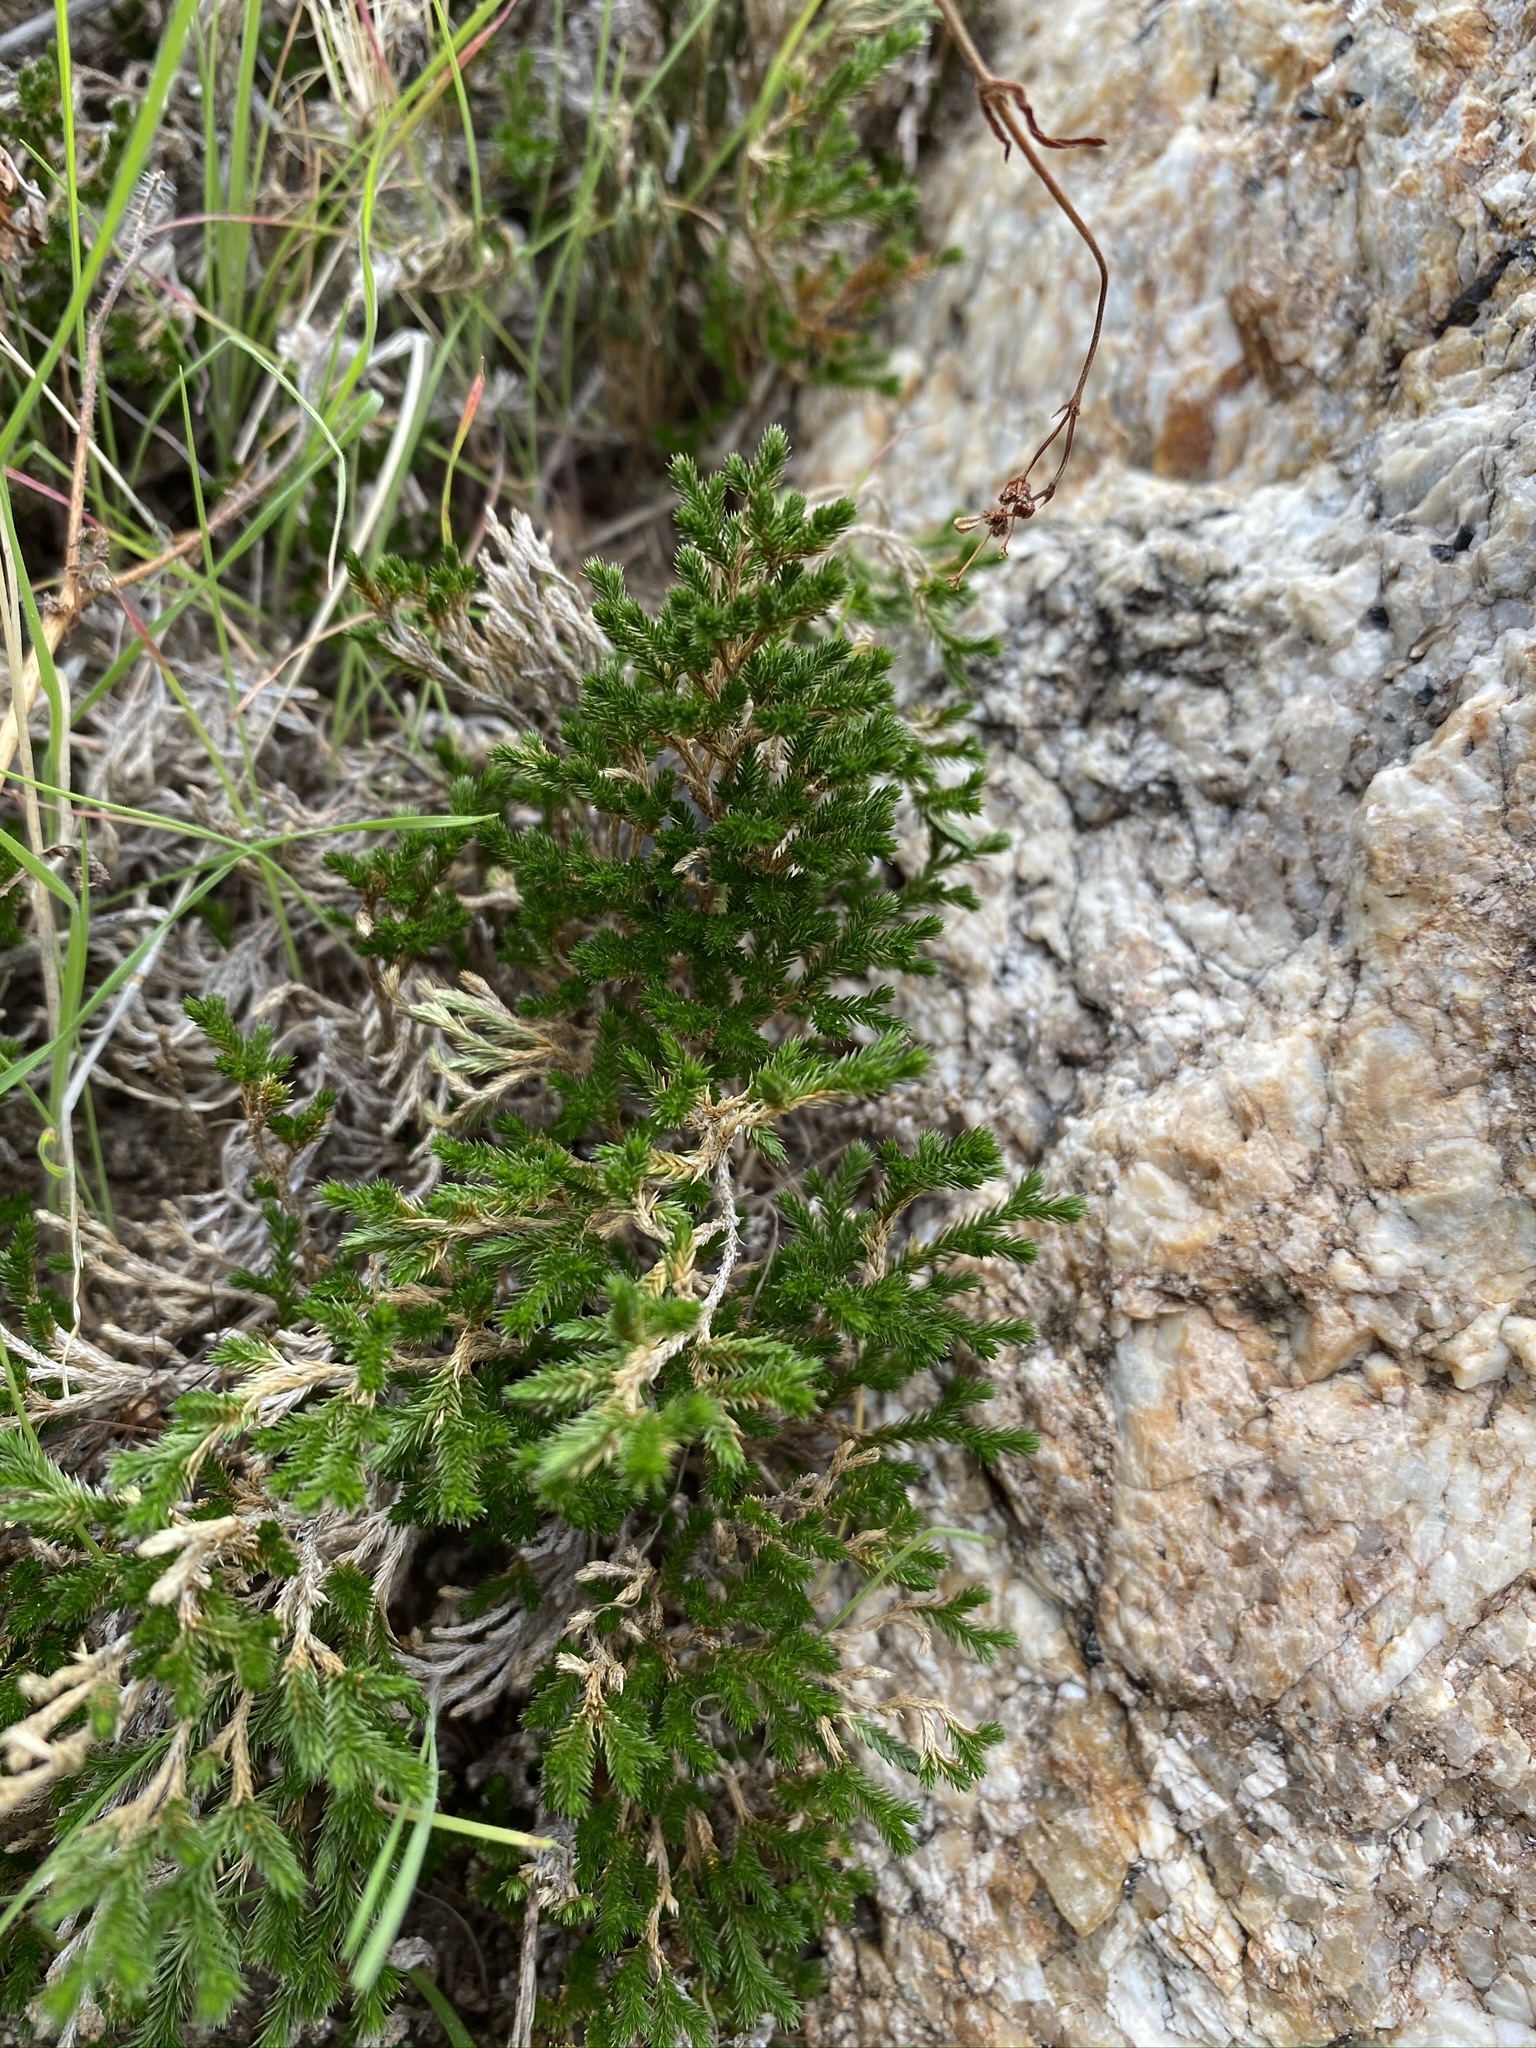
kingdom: Plantae
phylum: Tracheophyta
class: Lycopodiopsida
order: Selaginellales
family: Selaginellaceae
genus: Selaginella
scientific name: Selaginella bigelovii
